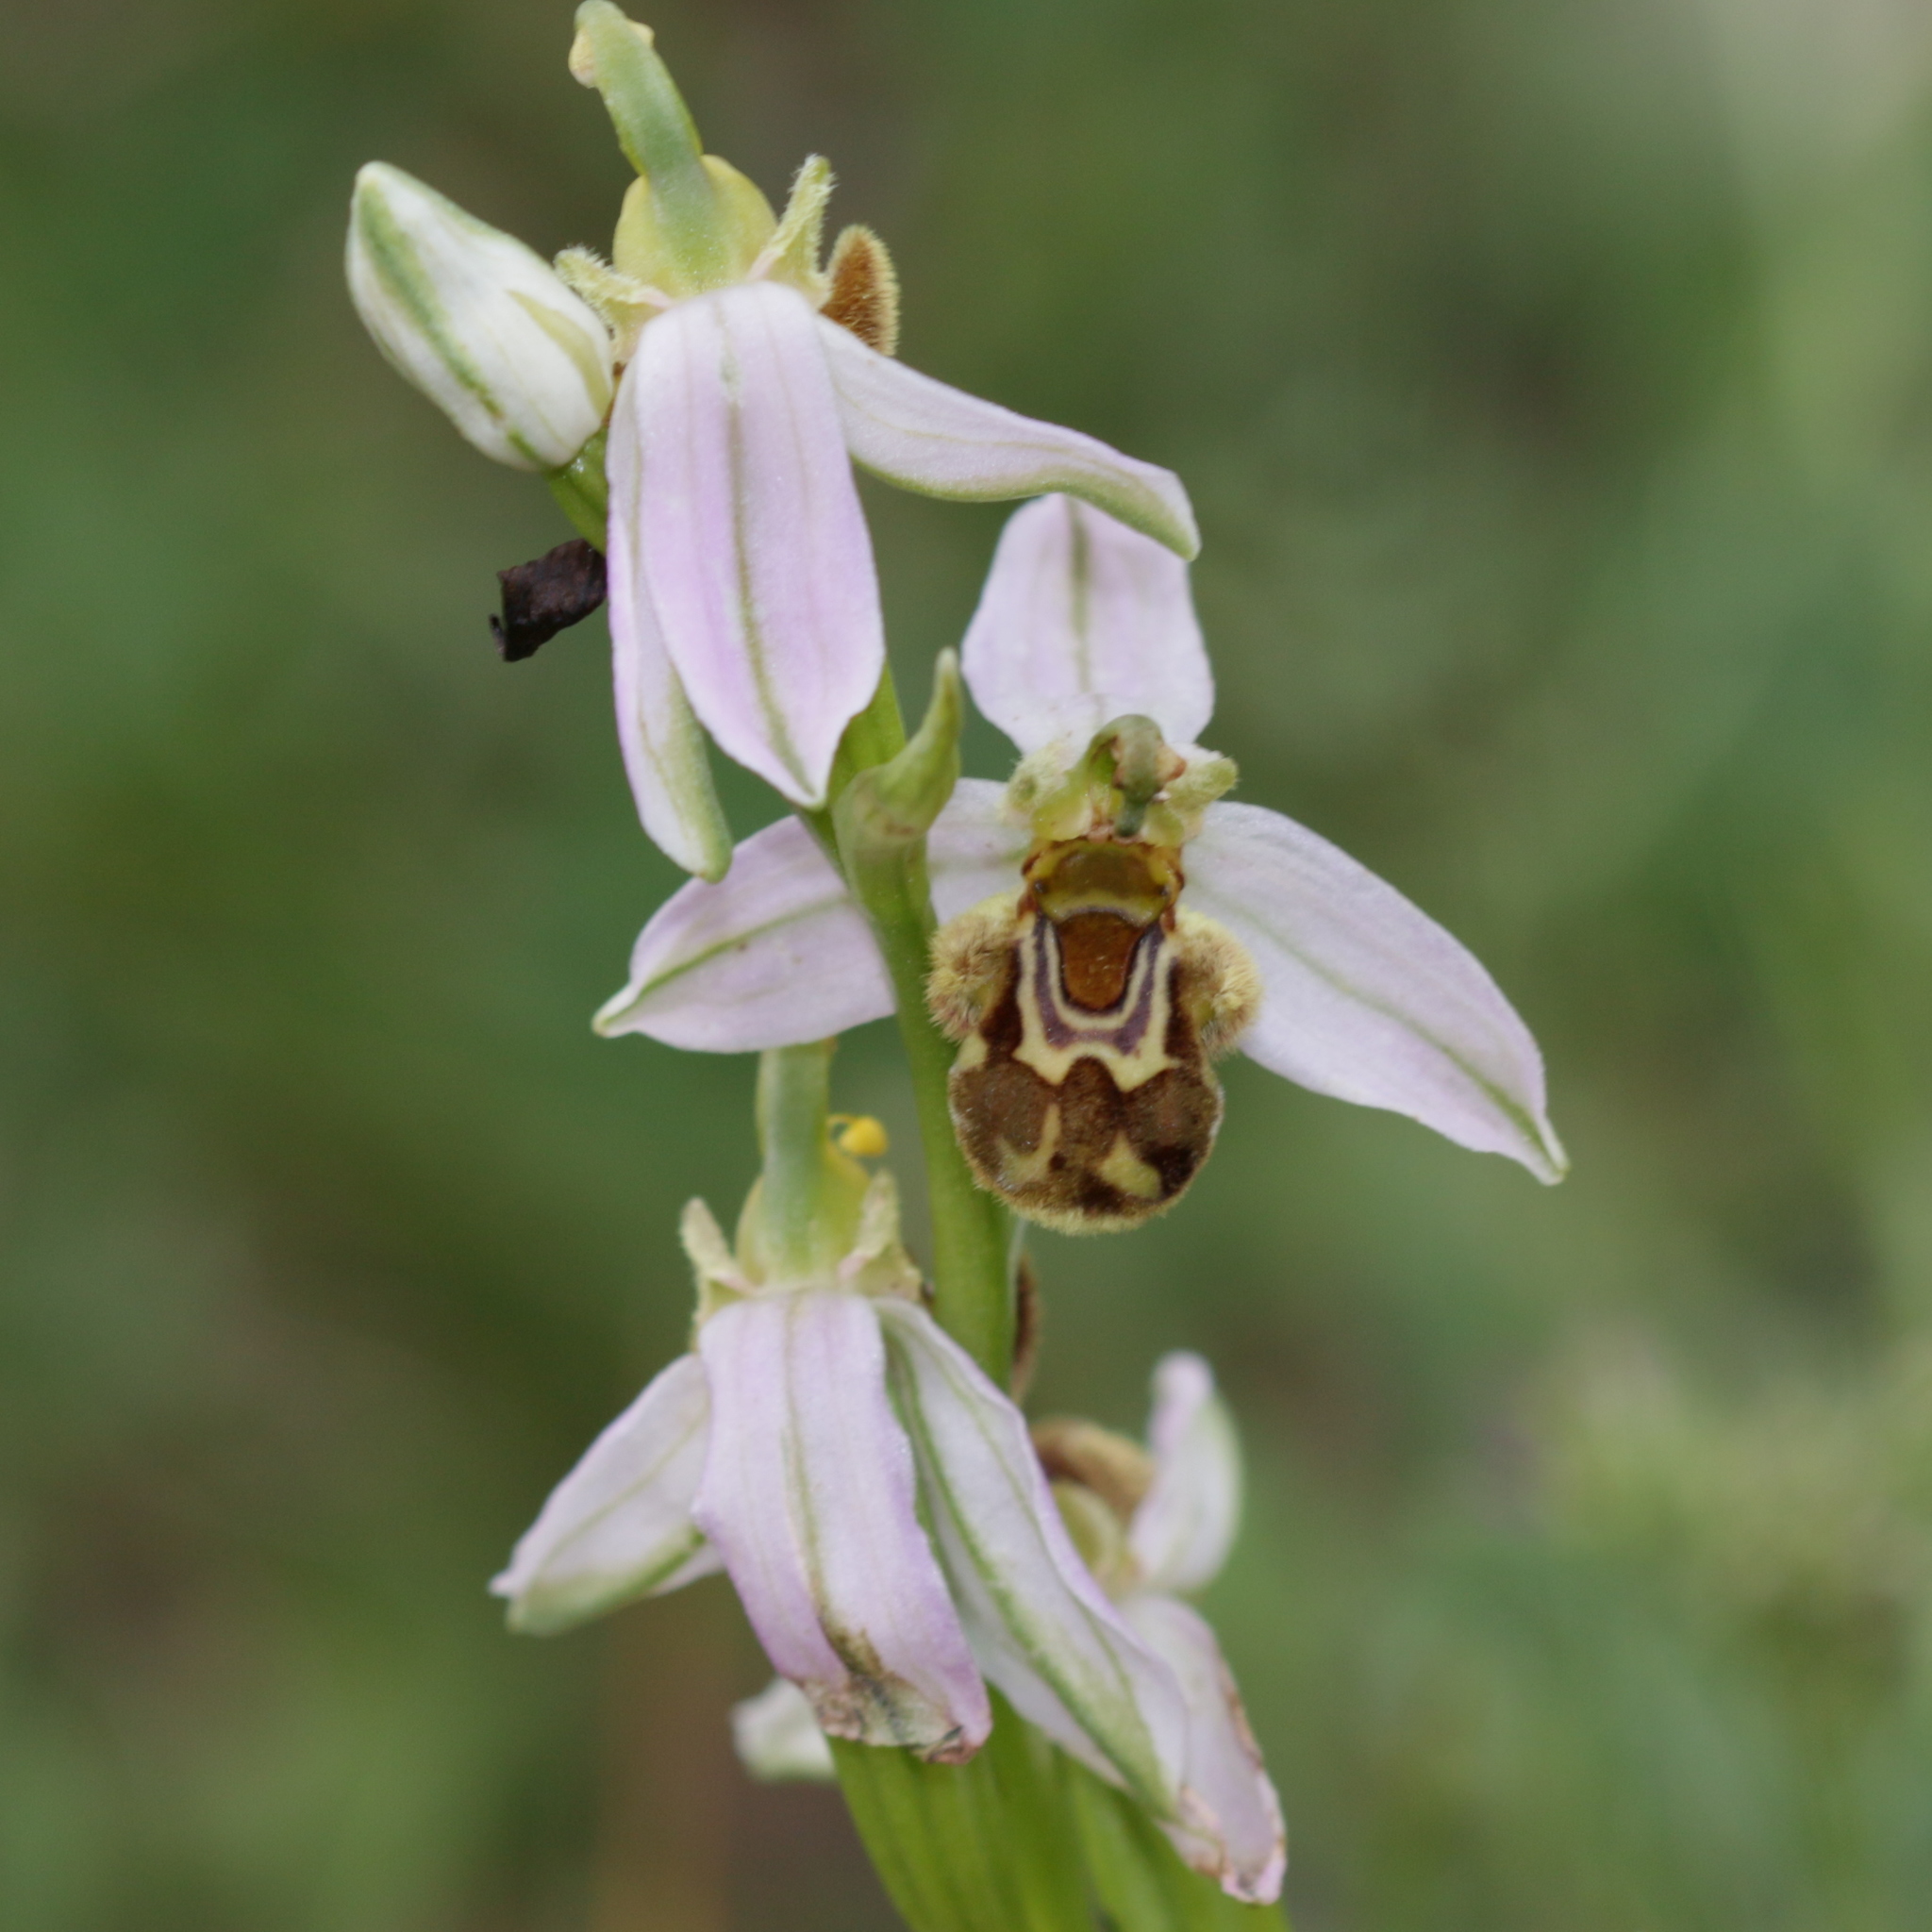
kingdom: Plantae
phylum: Tracheophyta
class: Liliopsida
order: Asparagales
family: Orchidaceae
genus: Ophrys
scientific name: Ophrys apifera
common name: Bee orchid
